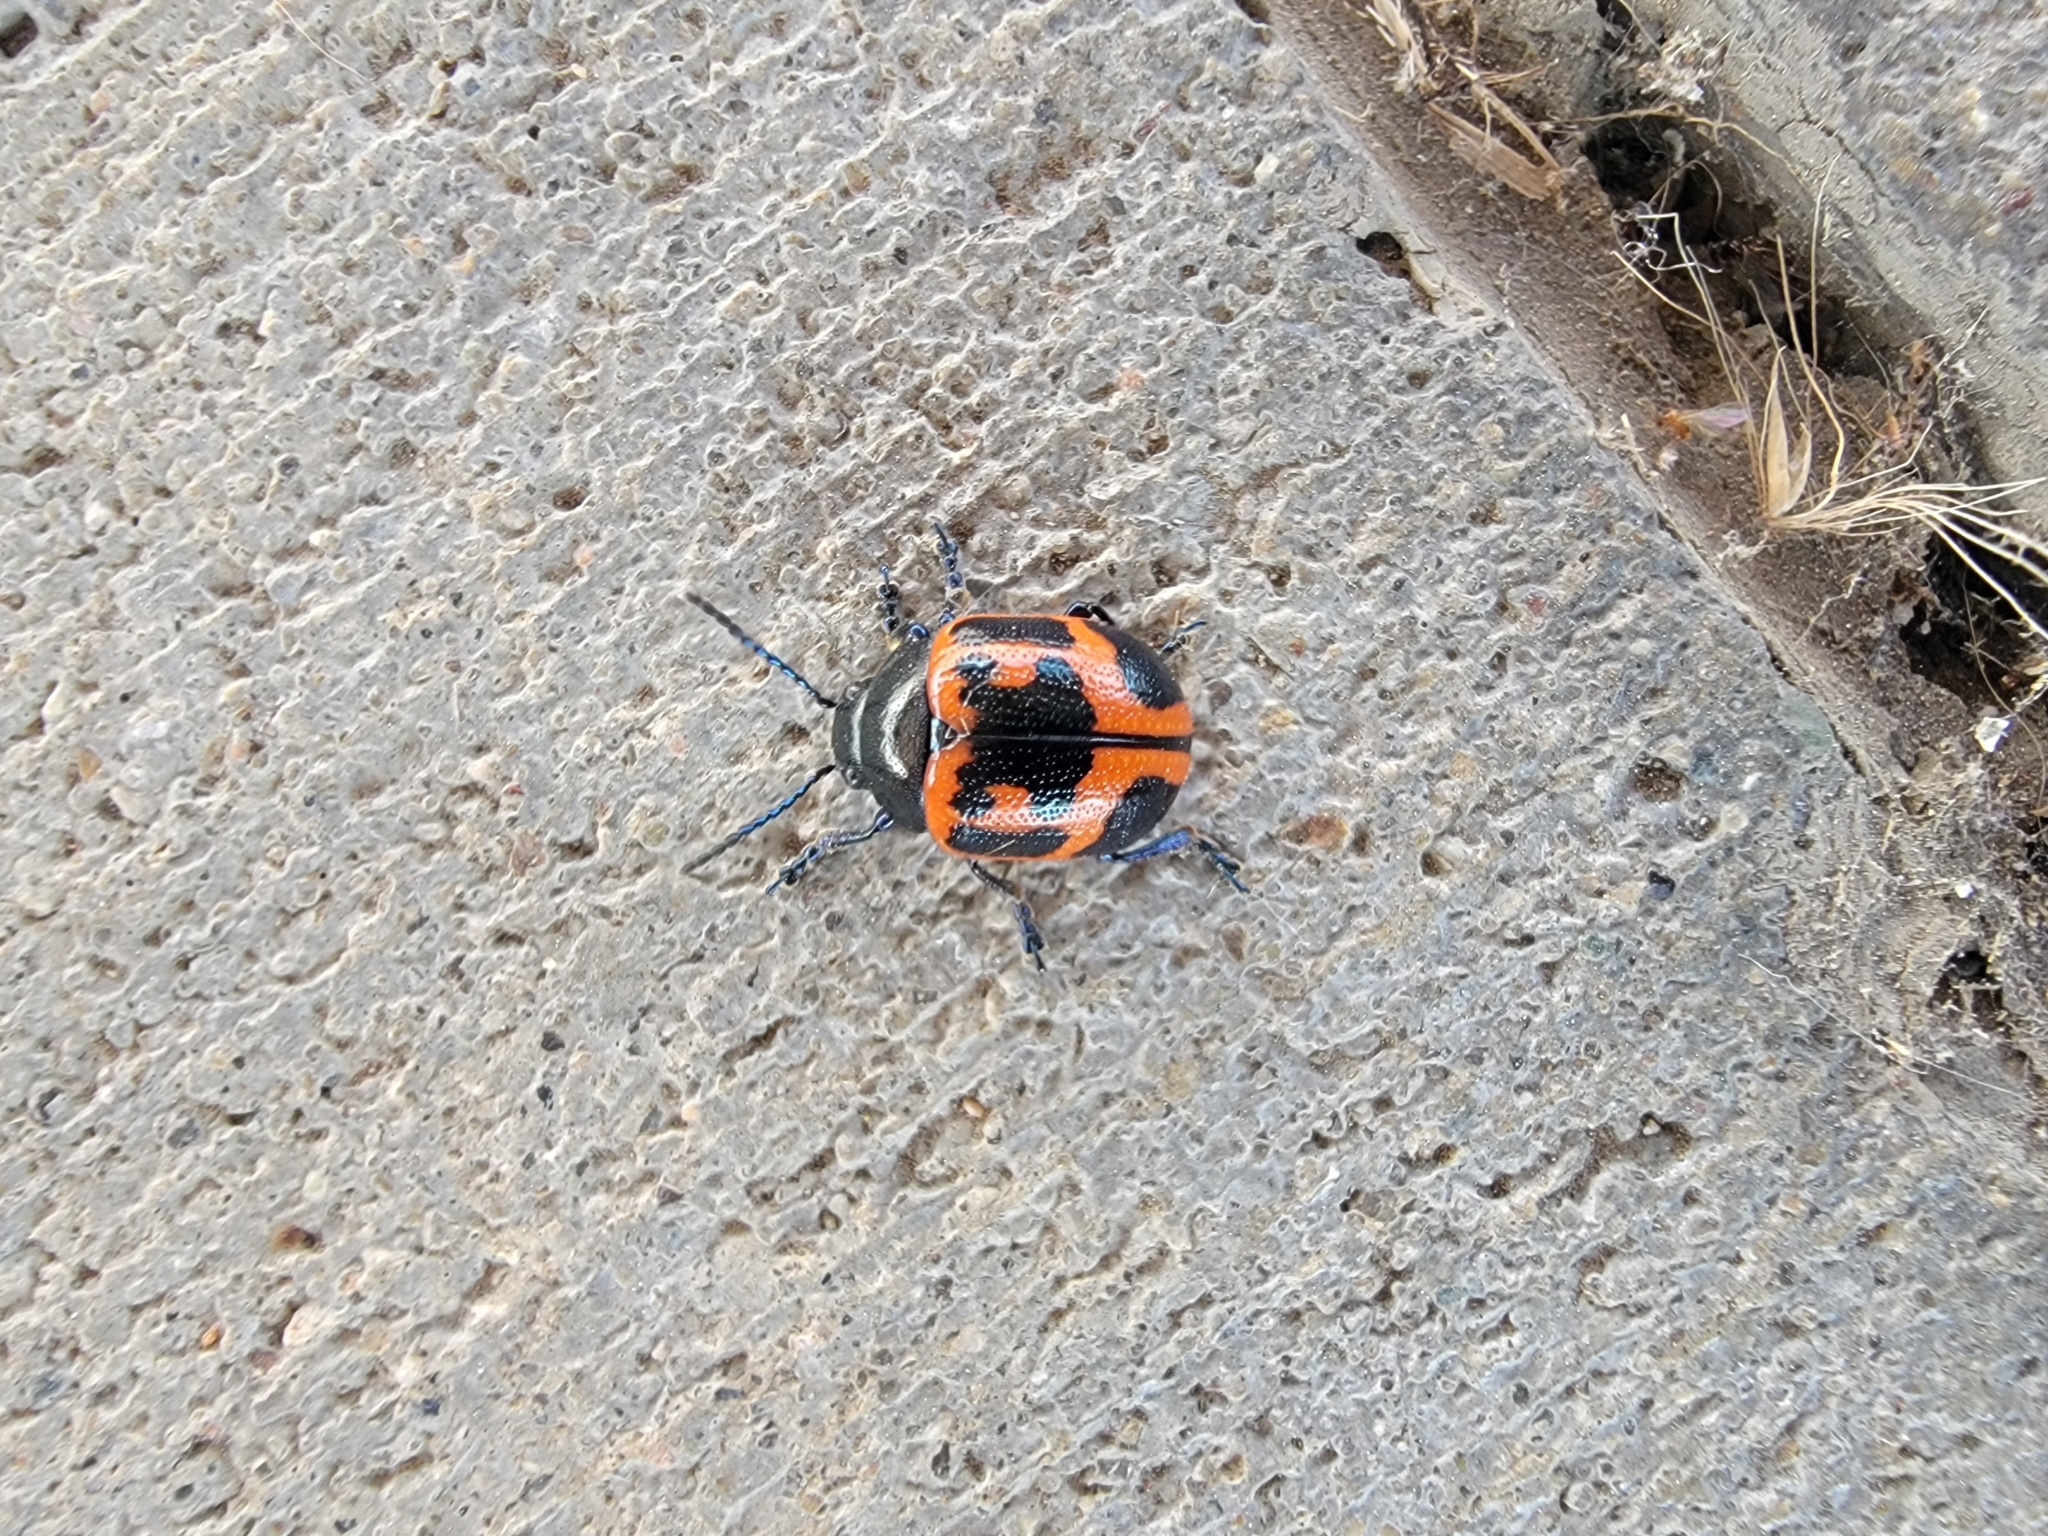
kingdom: Animalia
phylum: Arthropoda
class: Insecta
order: Coleoptera
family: Chrysomelidae
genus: Labidomera
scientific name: Labidomera clivicollis
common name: Swamp milkweed leaf beetle
